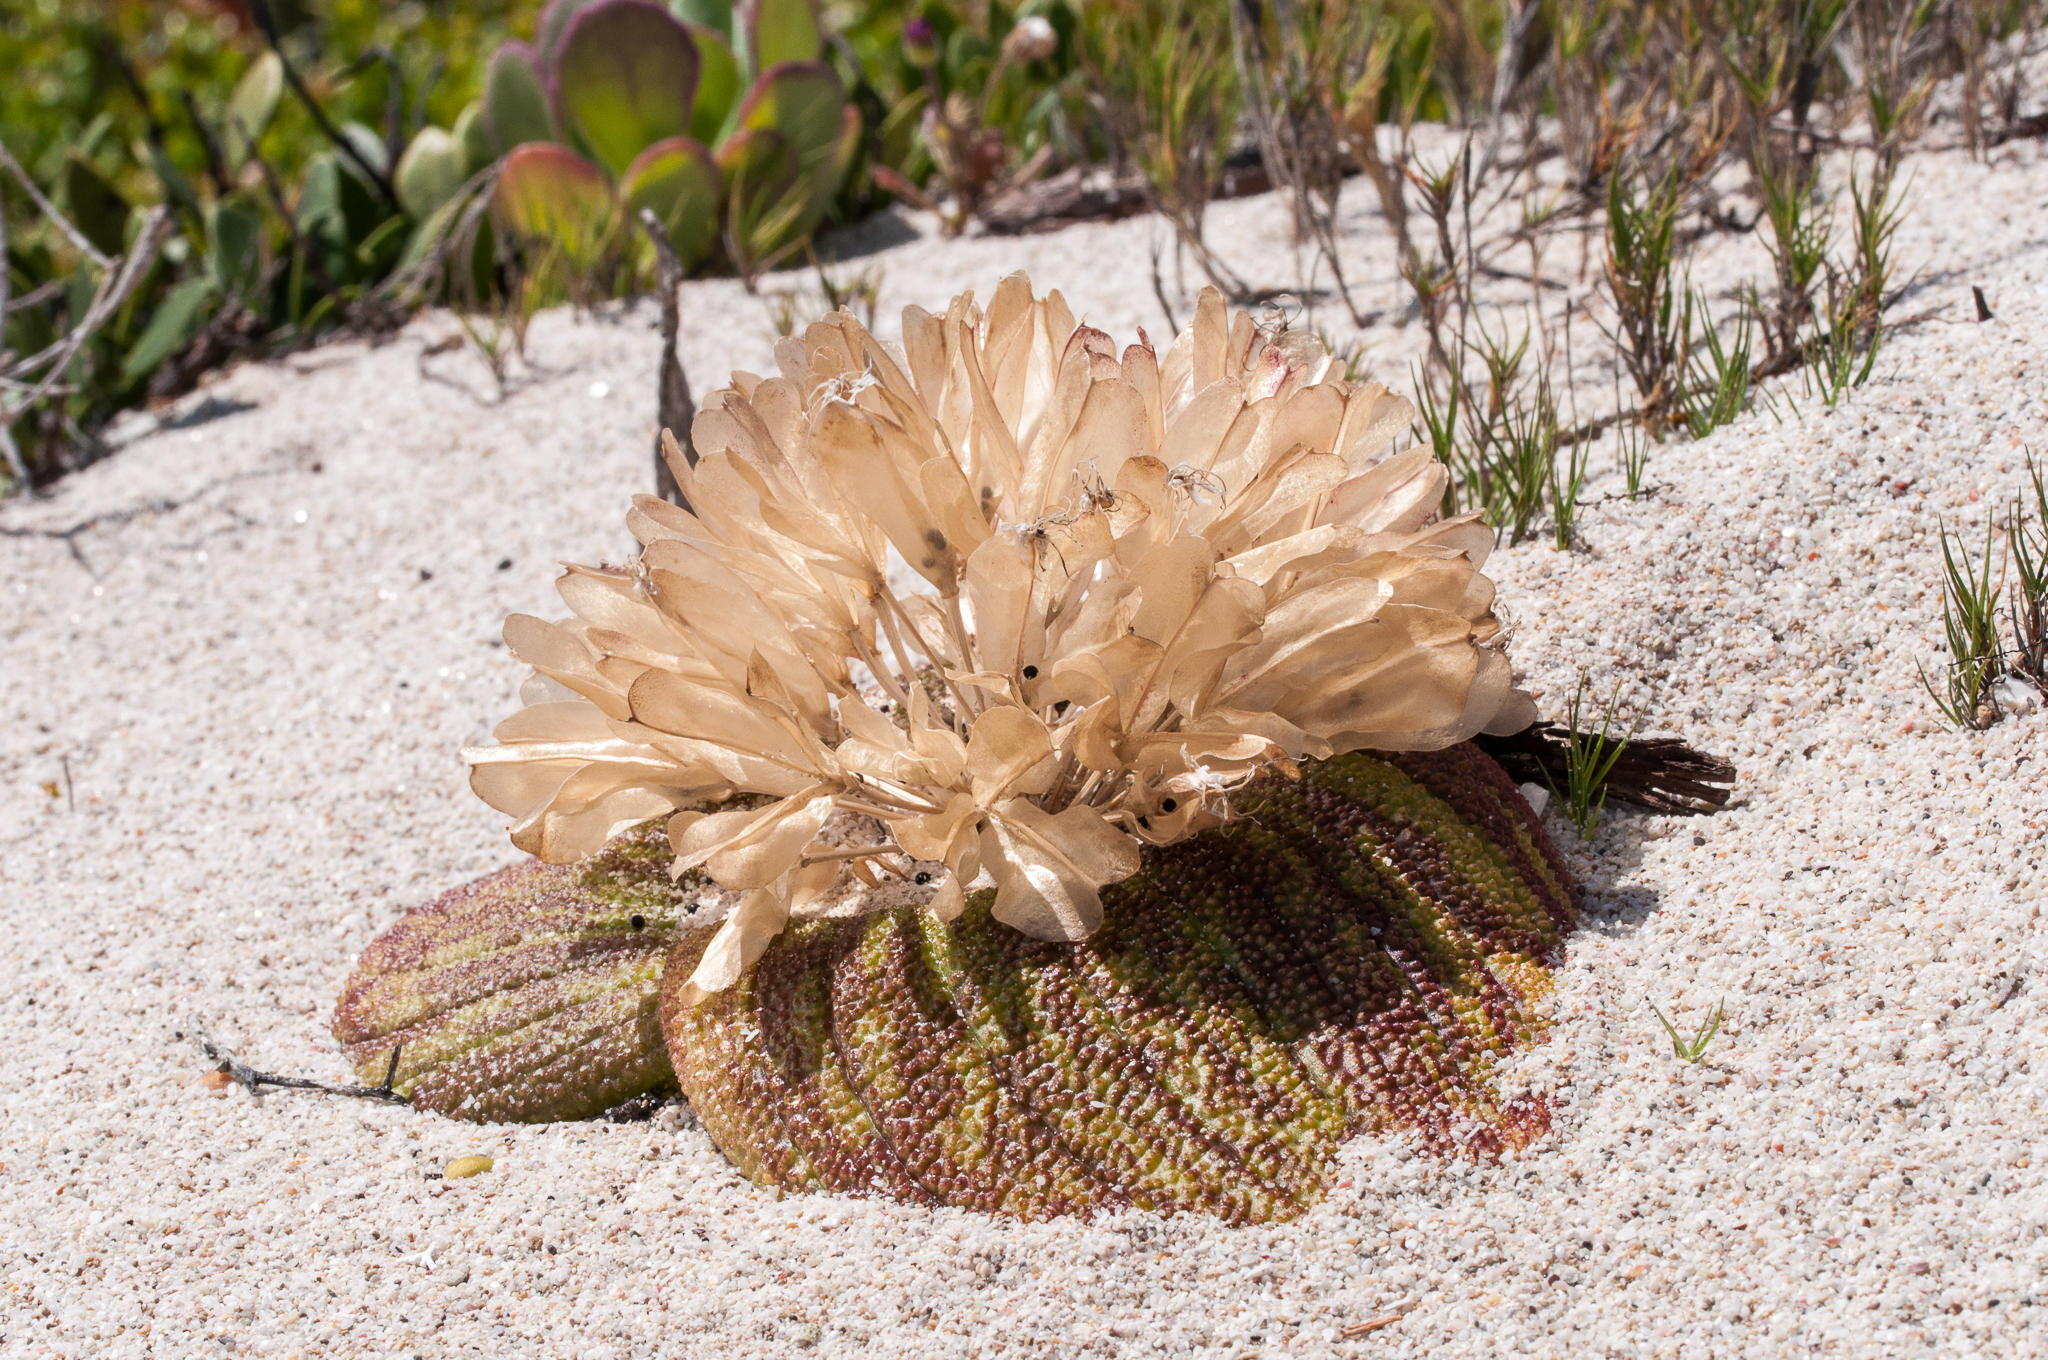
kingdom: Plantae
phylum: Tracheophyta
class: Liliopsida
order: Asparagales
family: Asparagaceae
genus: Massonia
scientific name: Massonia pustulata
